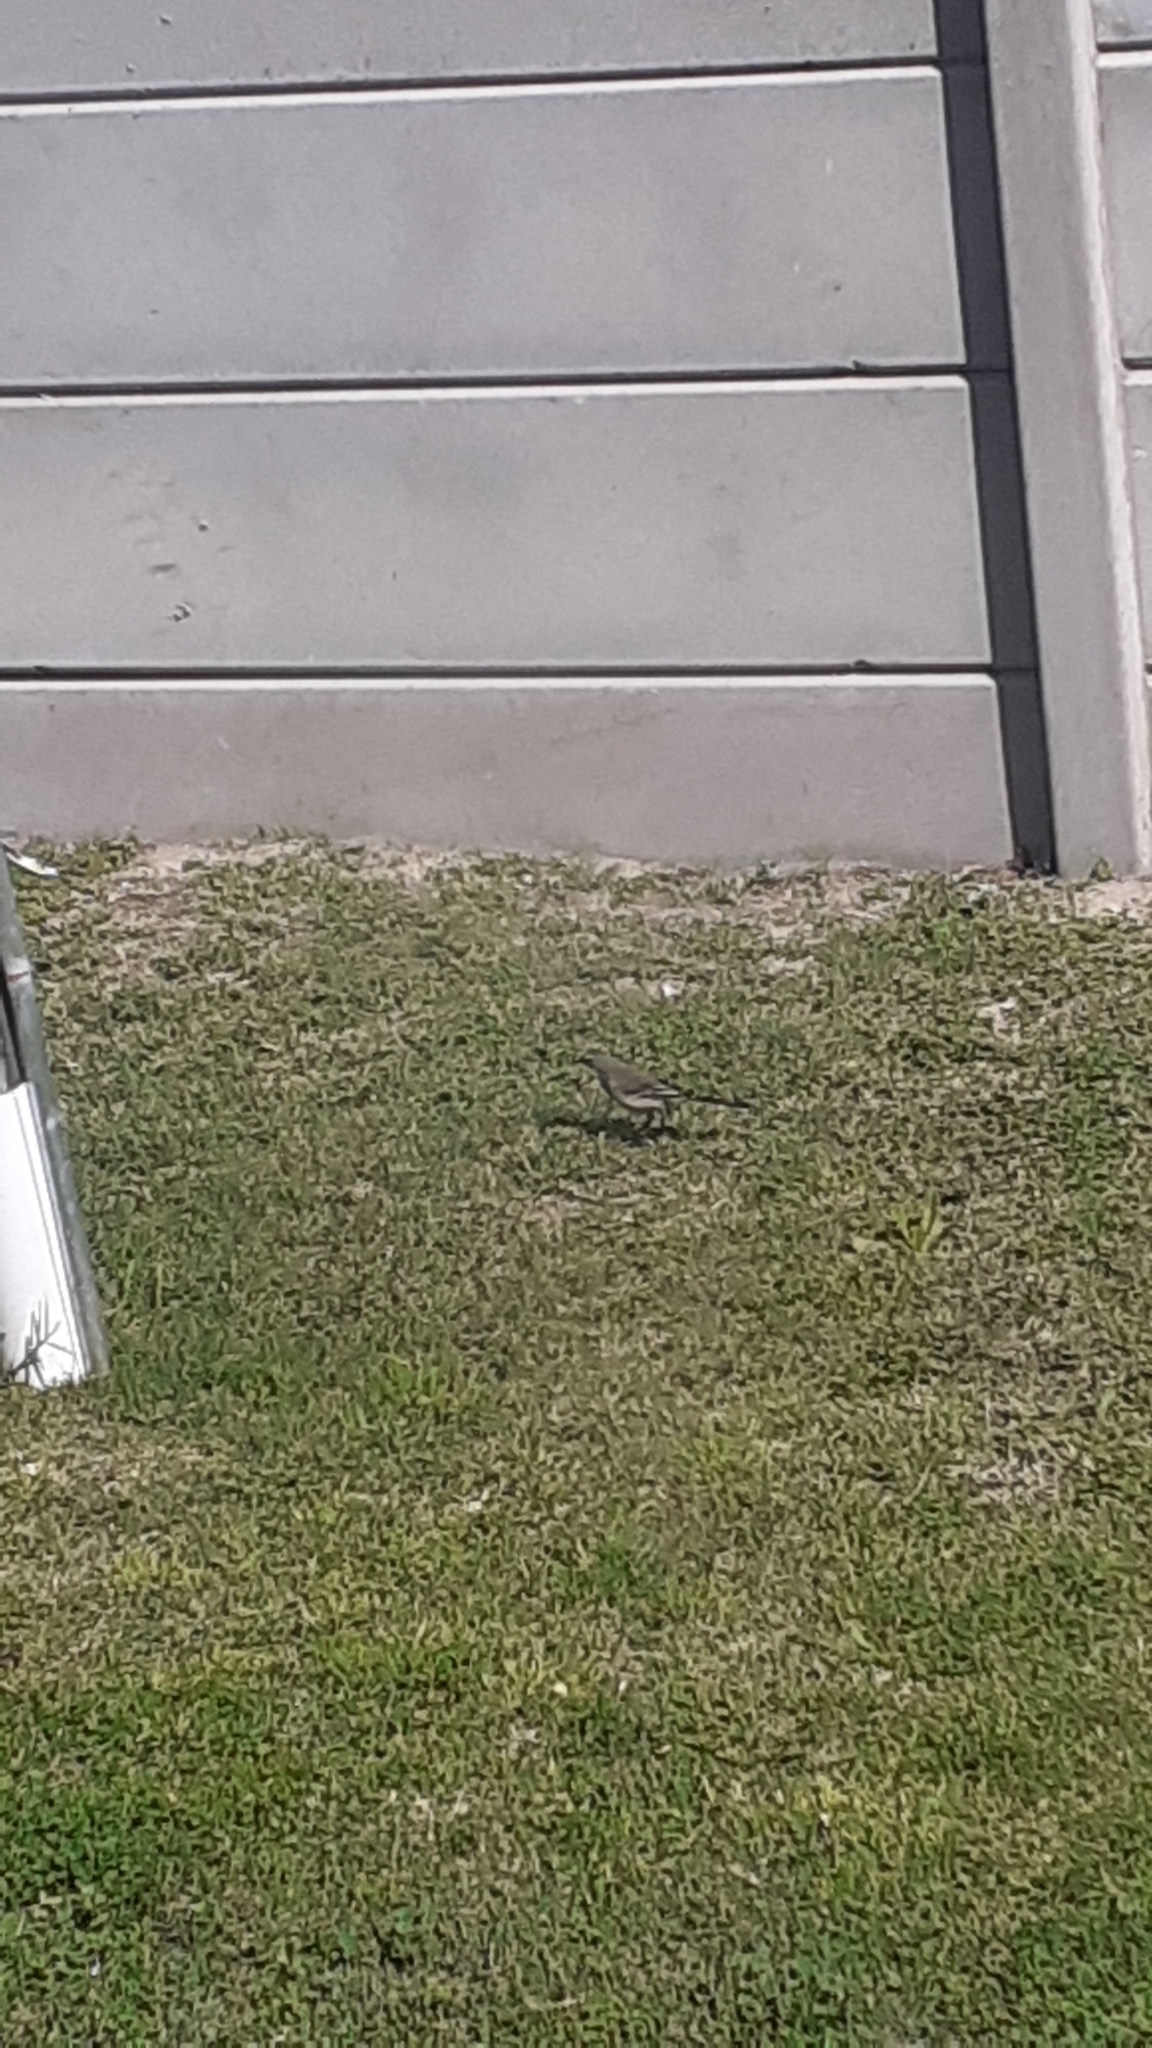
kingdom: Animalia
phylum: Chordata
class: Aves
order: Passeriformes
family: Motacillidae
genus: Motacilla
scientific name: Motacilla capensis
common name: Cape wagtail
